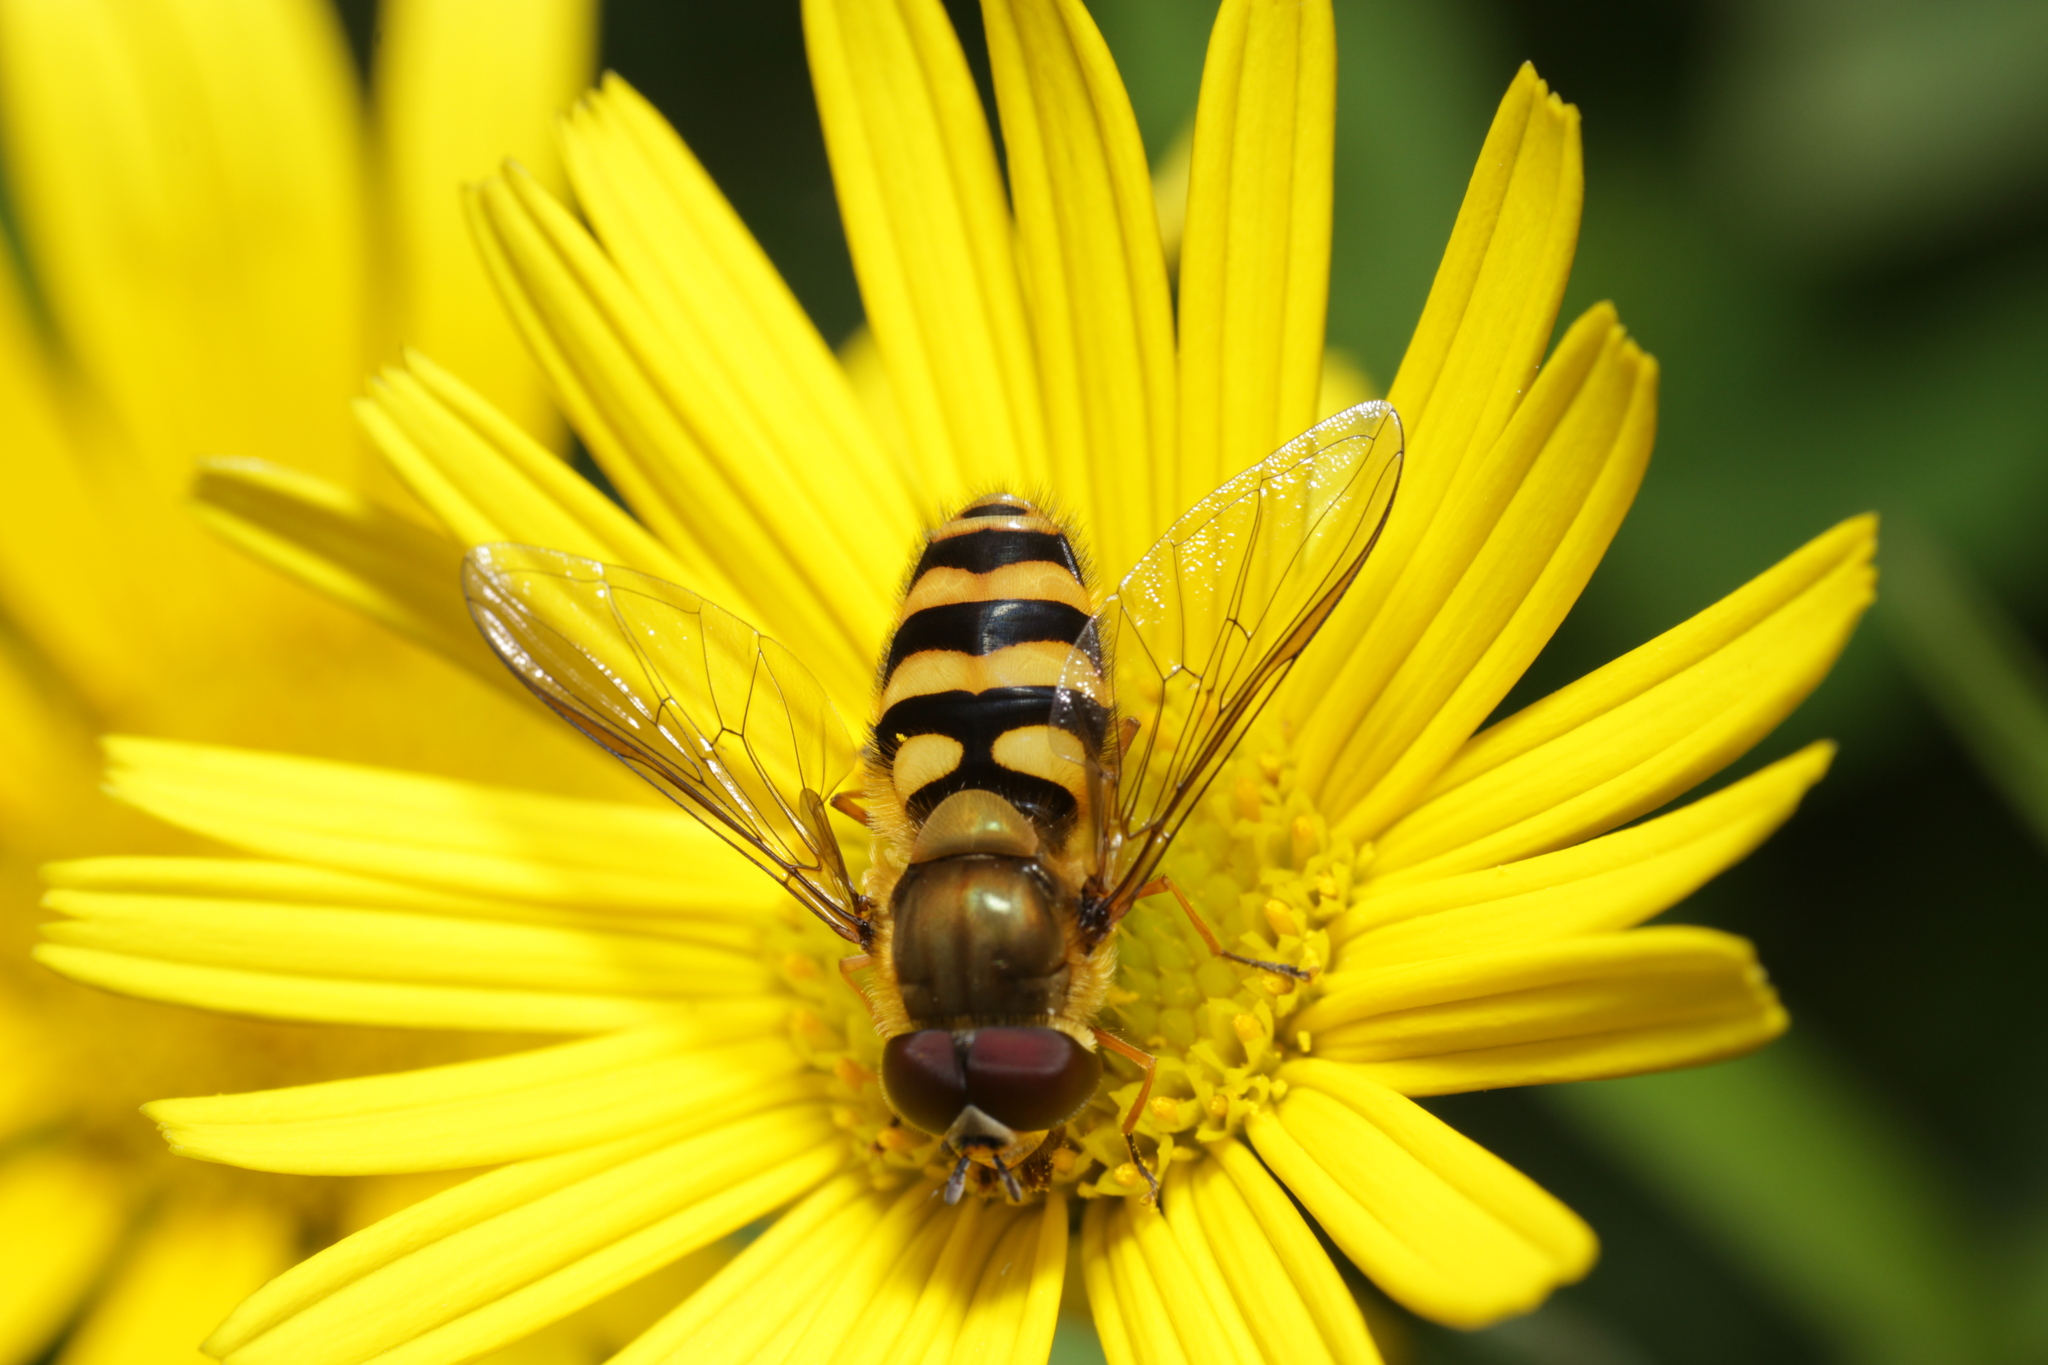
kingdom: Animalia
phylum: Arthropoda
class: Insecta
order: Diptera
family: Syrphidae
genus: Syrphus
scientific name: Syrphus
